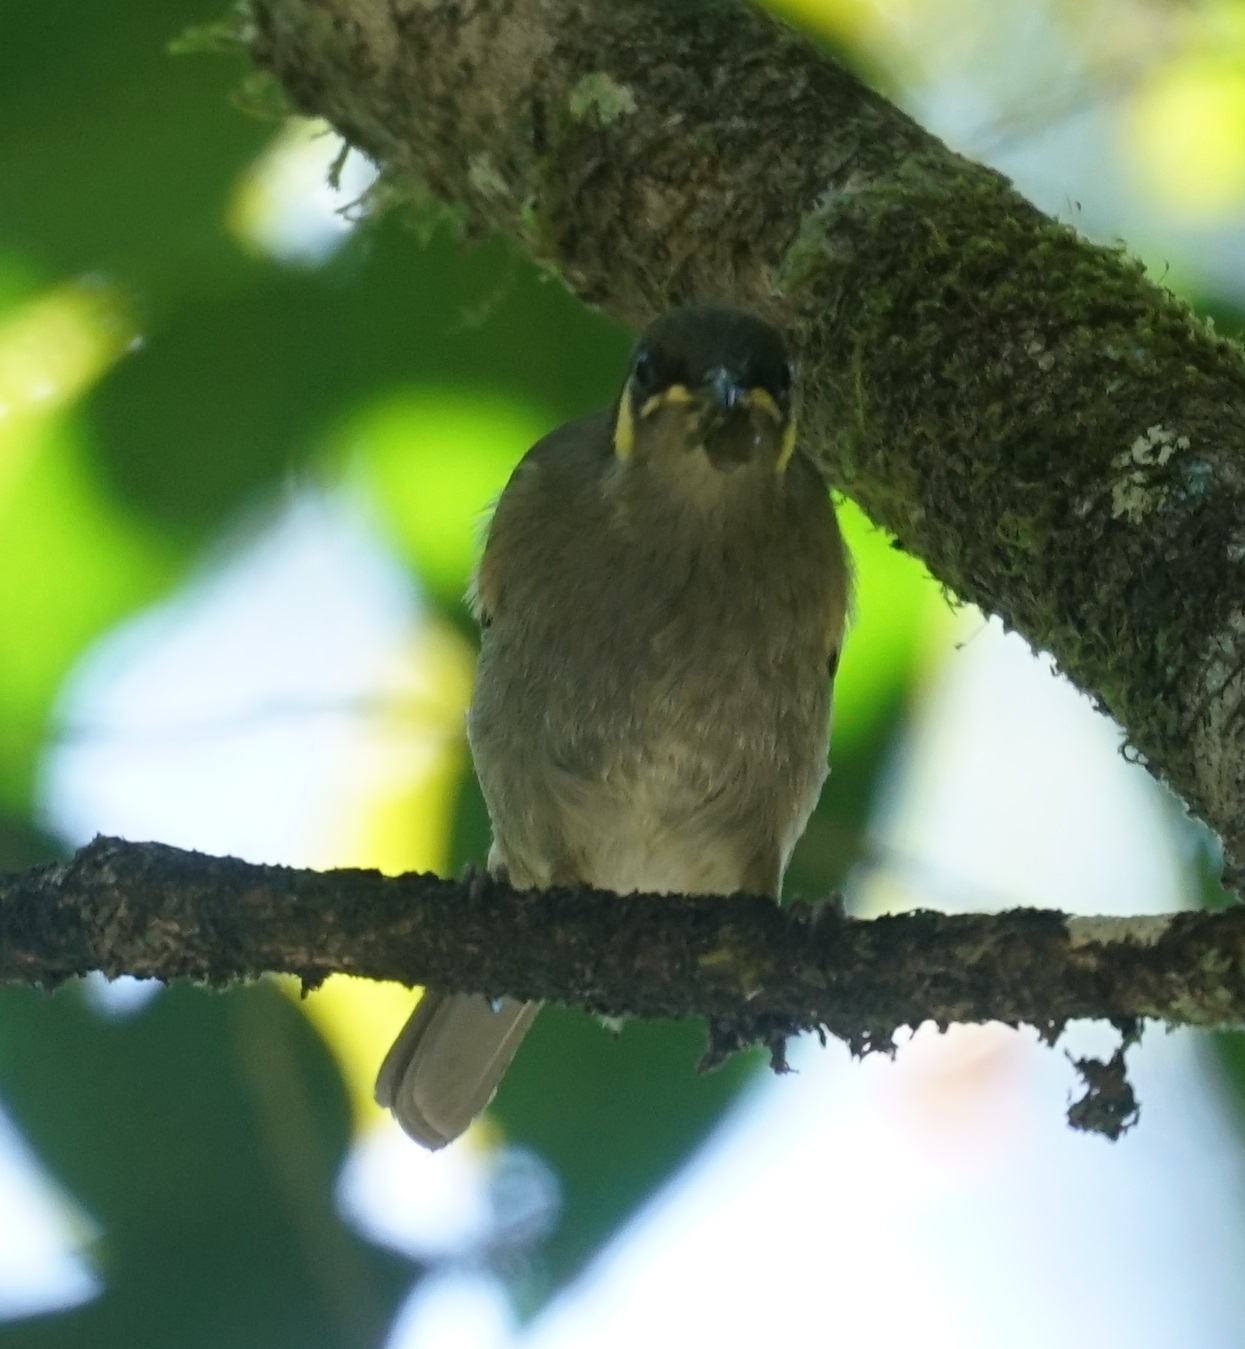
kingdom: Animalia
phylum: Chordata
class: Aves
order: Passeriformes
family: Meliphagidae
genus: Meliphaga
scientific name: Meliphaga notata
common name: Yellow-spotted honeyeater
